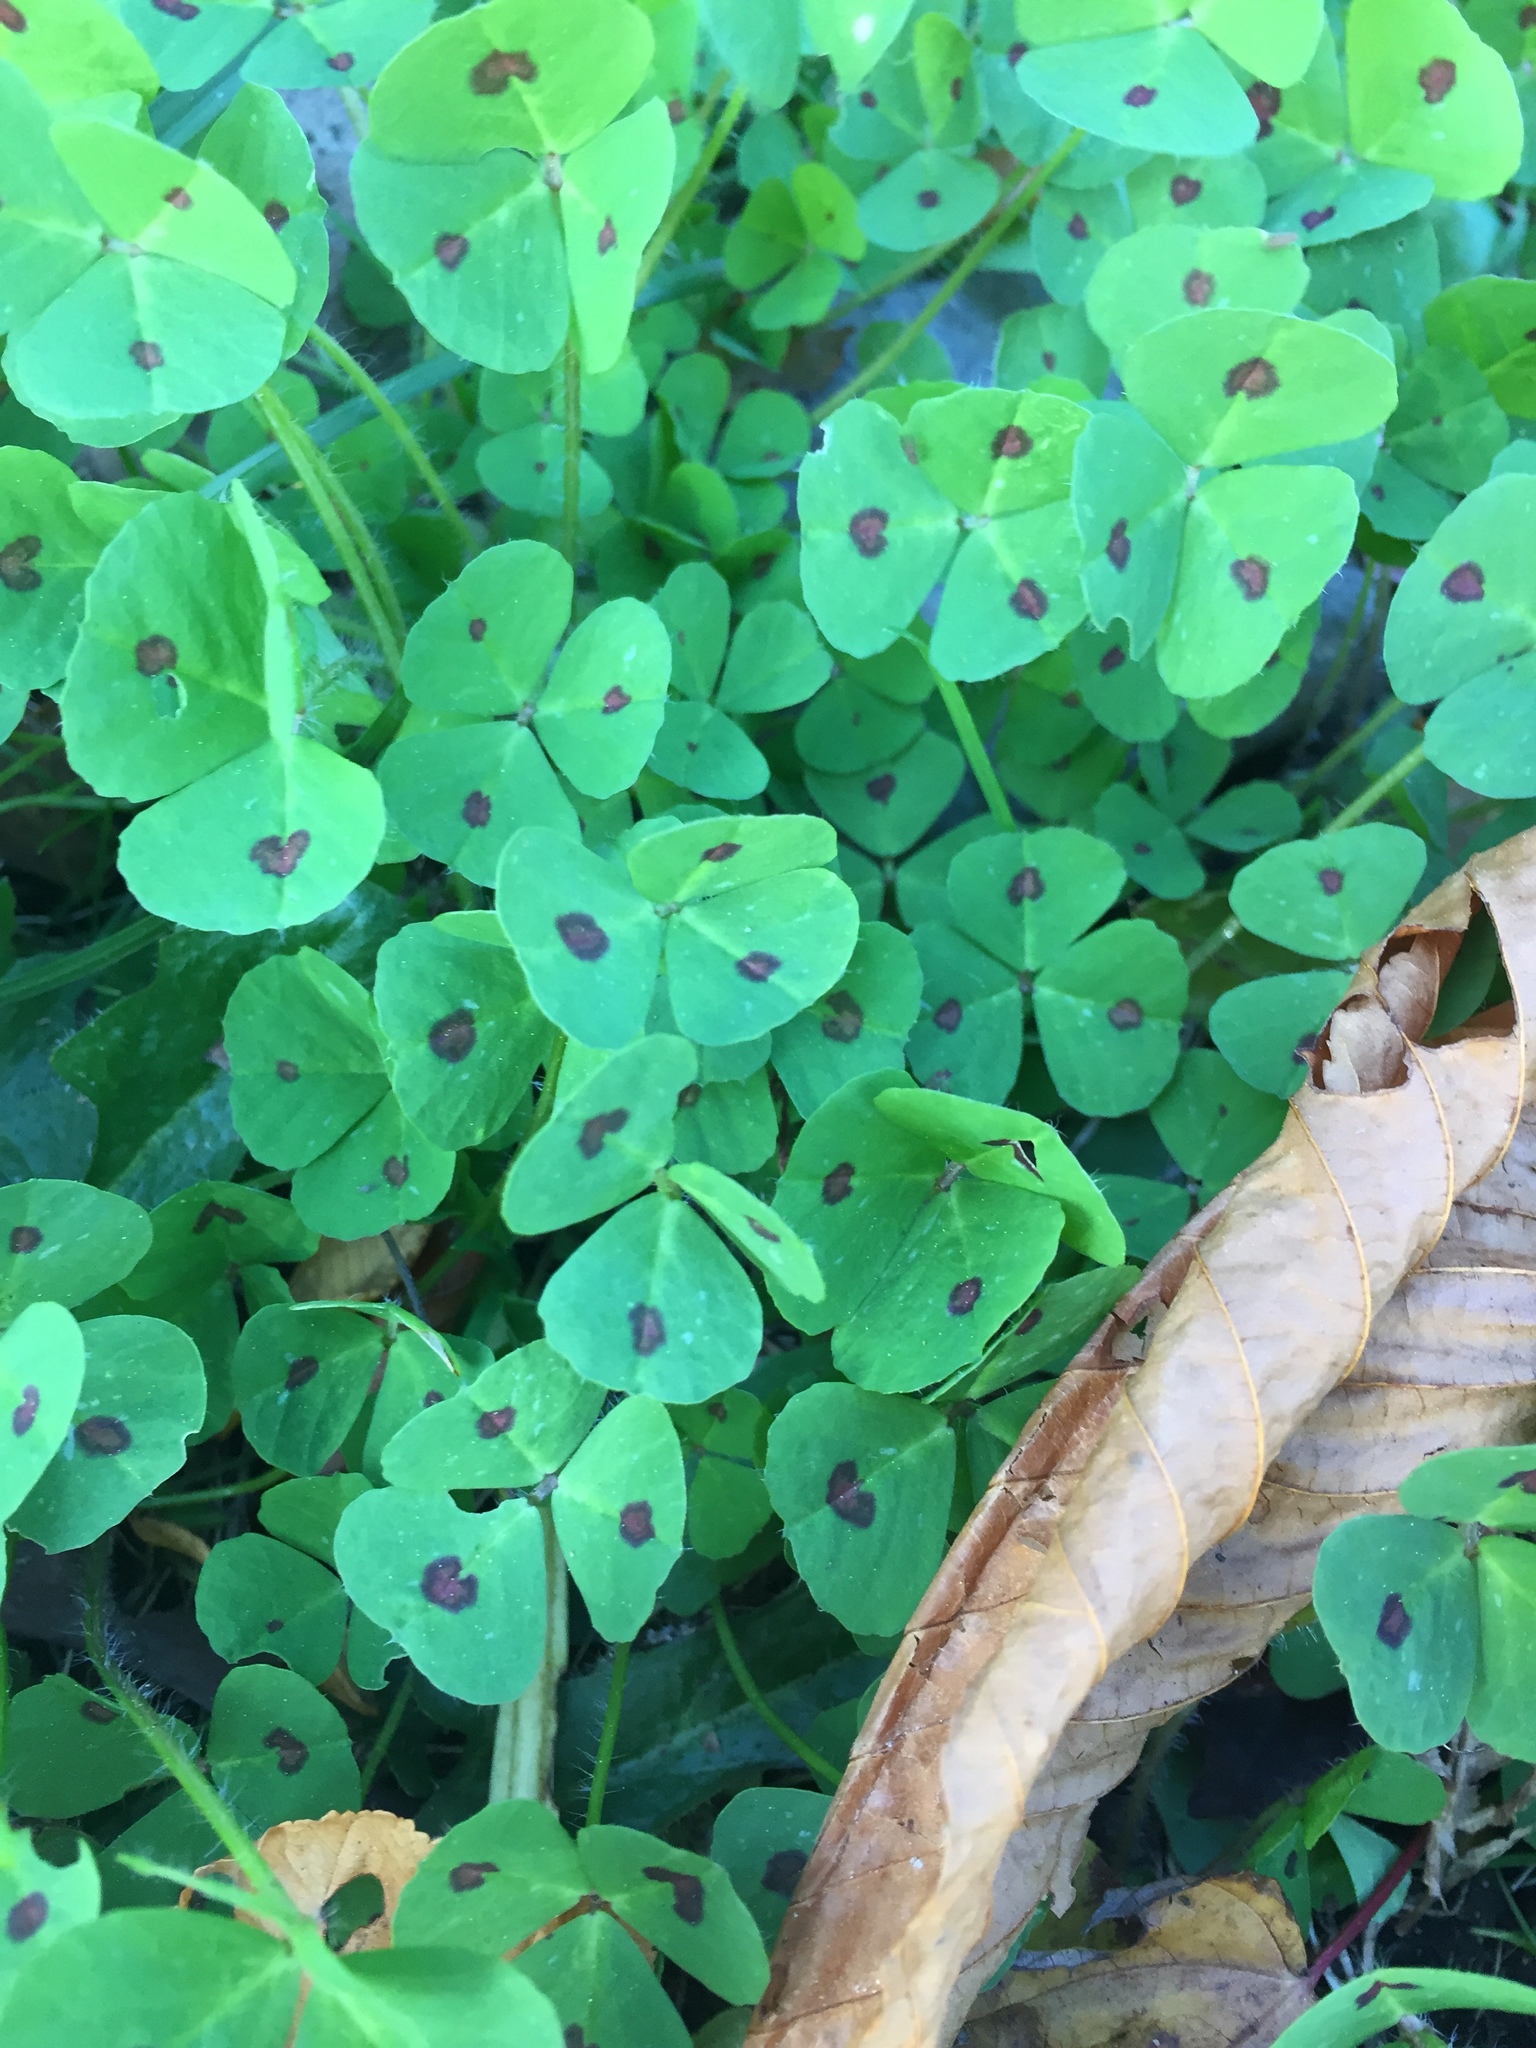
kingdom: Plantae
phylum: Tracheophyta
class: Magnoliopsida
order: Fabales
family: Fabaceae
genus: Medicago
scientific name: Medicago arabica
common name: Spotted medick
